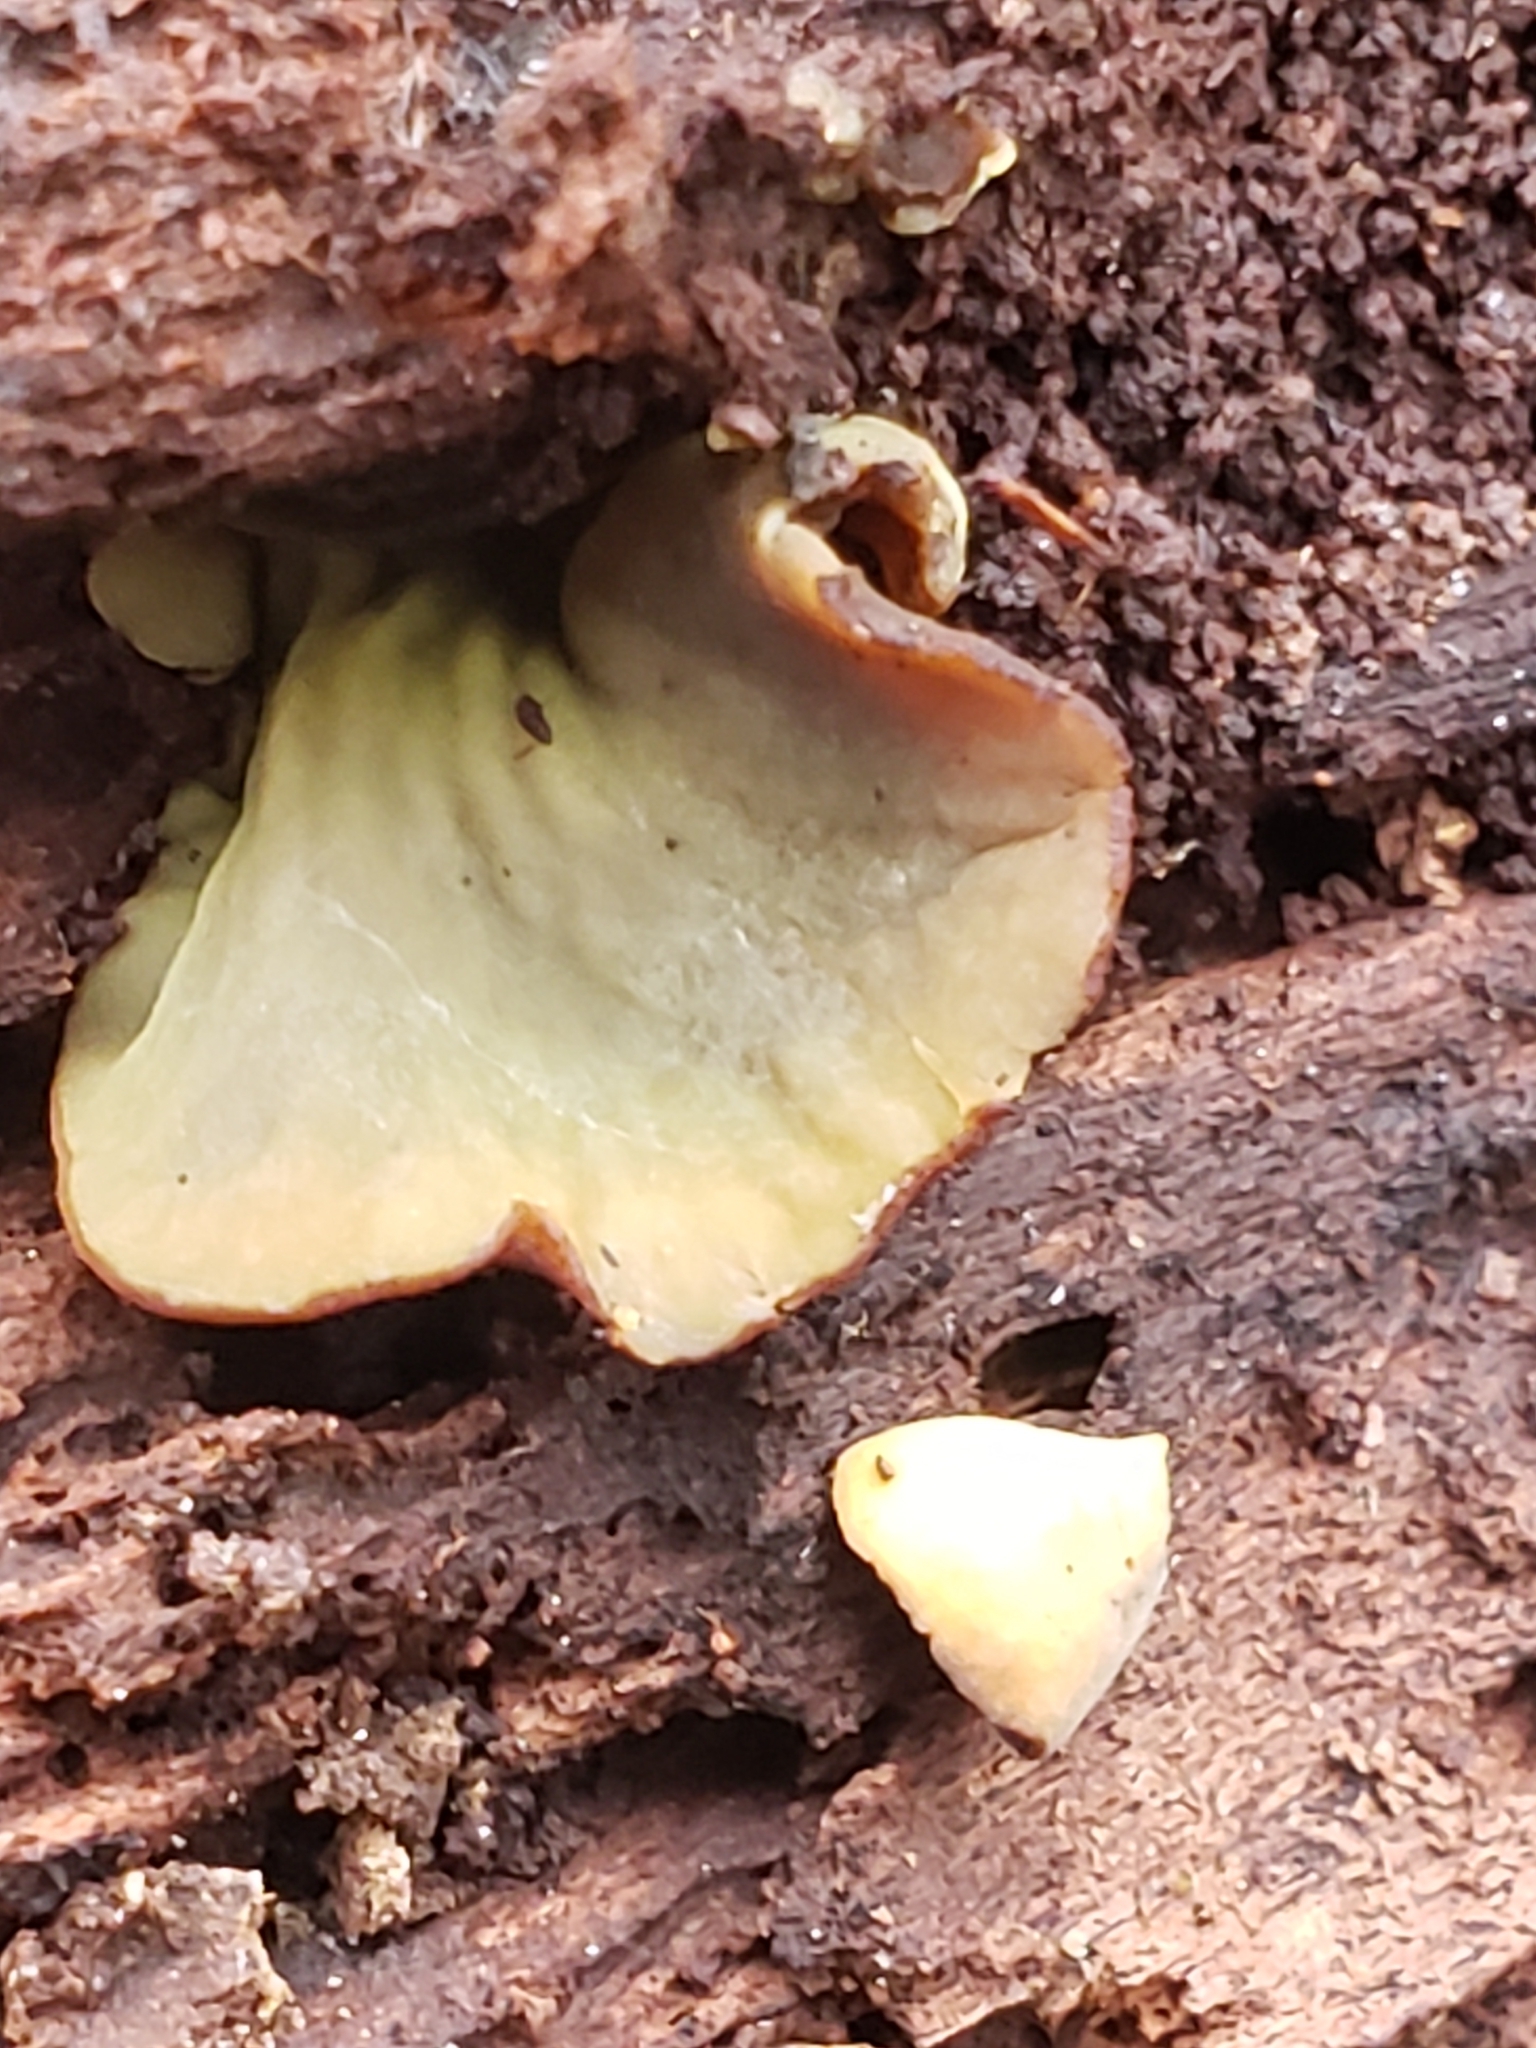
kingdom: Fungi
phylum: Ascomycota
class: Leotiomycetes
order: Helotiales
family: Cenangiaceae
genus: Chlorencoelia
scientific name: Chlorencoelia versiformis
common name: Flea's ear
